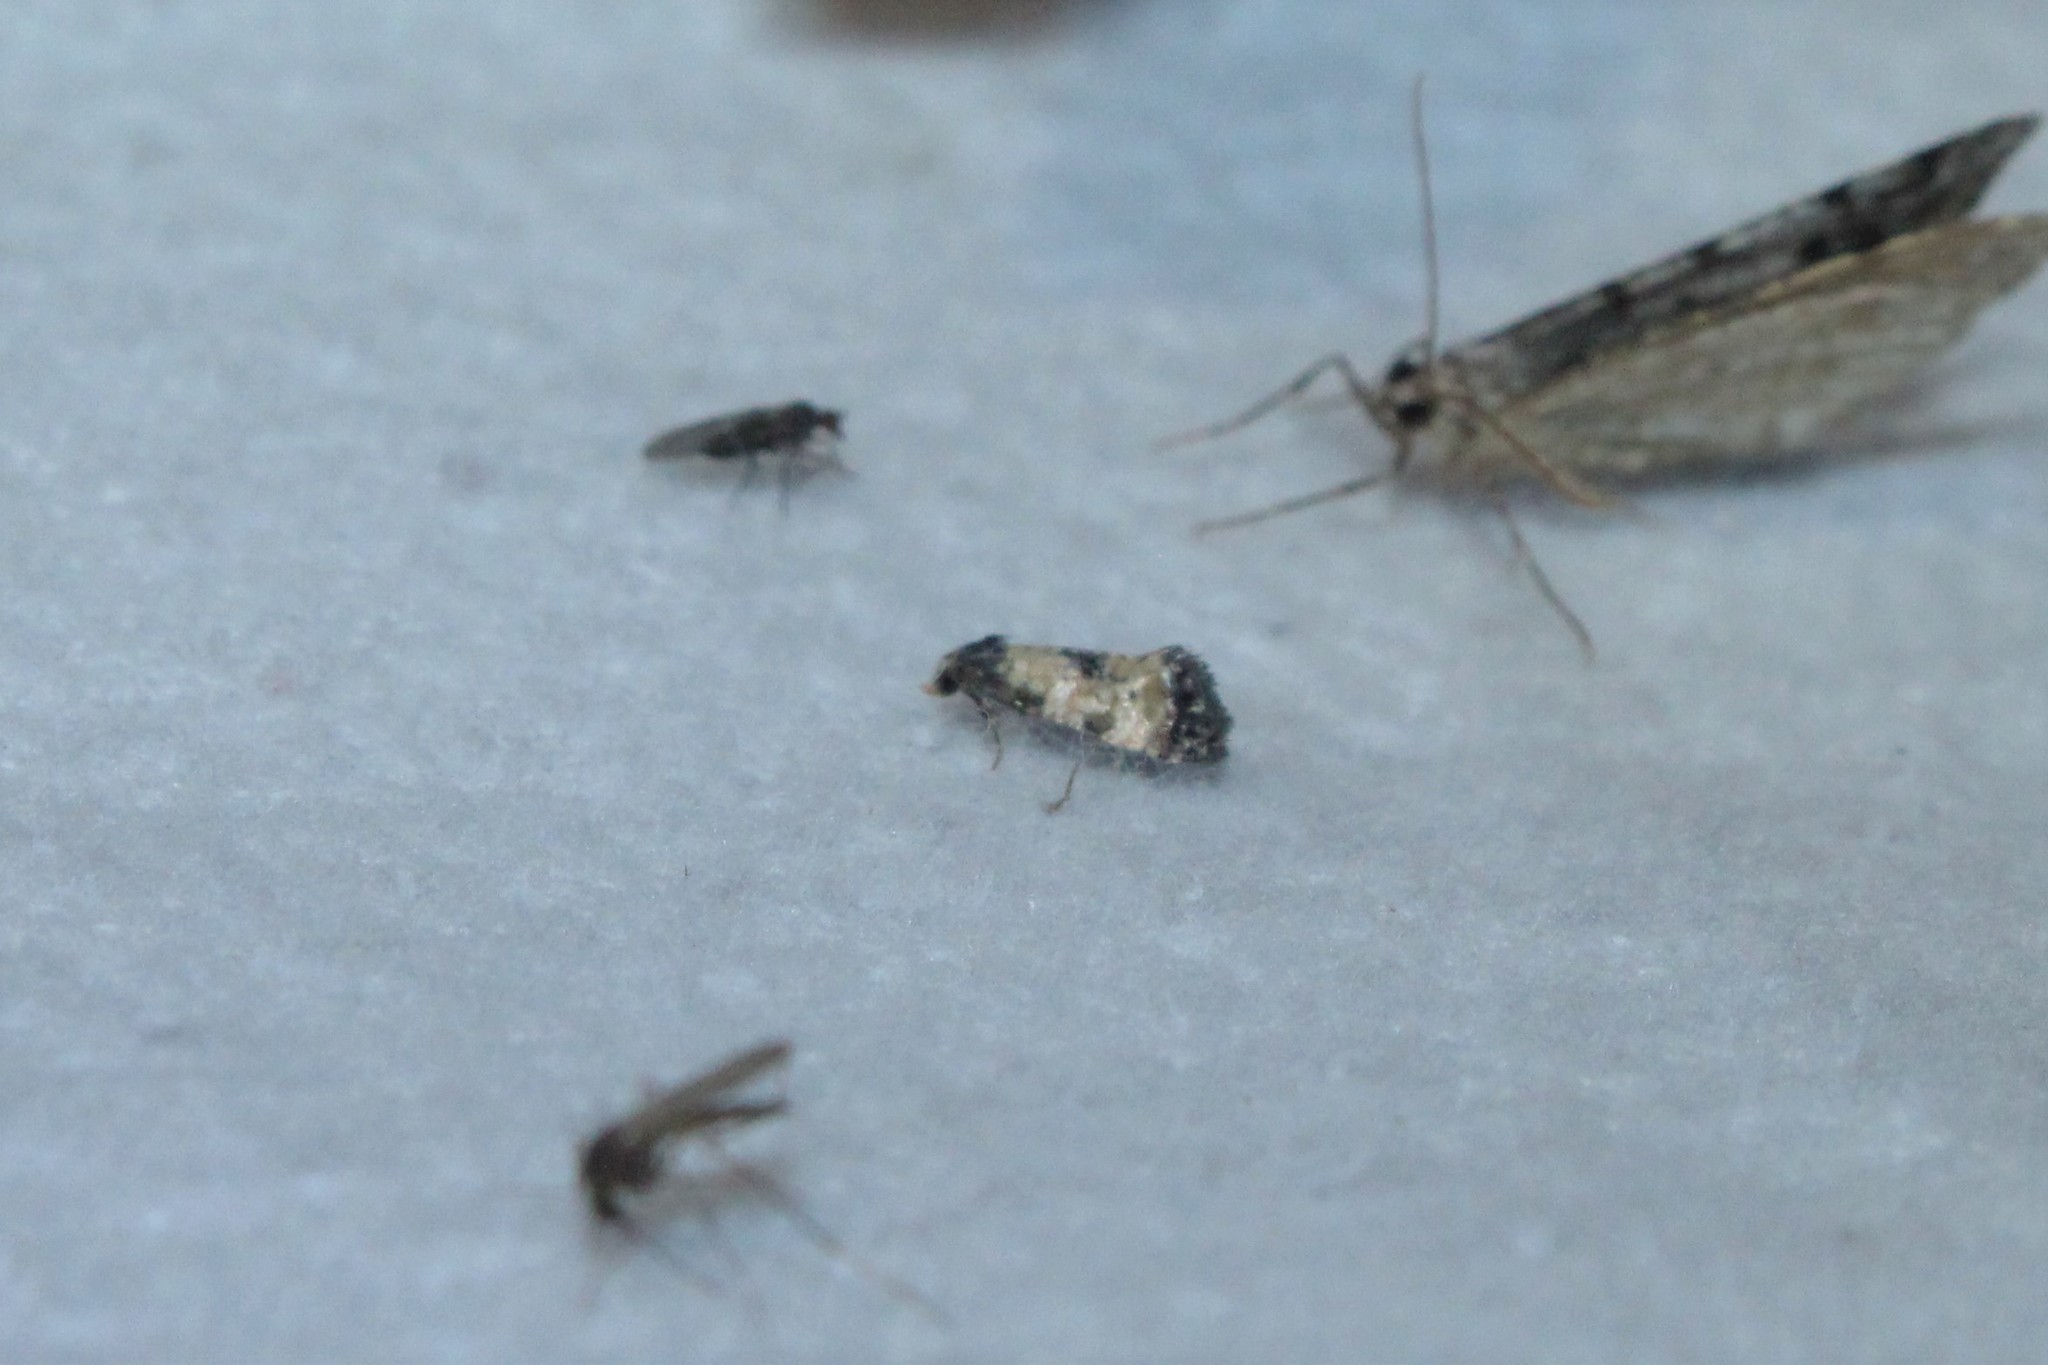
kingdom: Animalia
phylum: Arthropoda
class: Insecta
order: Lepidoptera
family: Tortricidae
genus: Cochylis
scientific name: Cochylis dubitana
